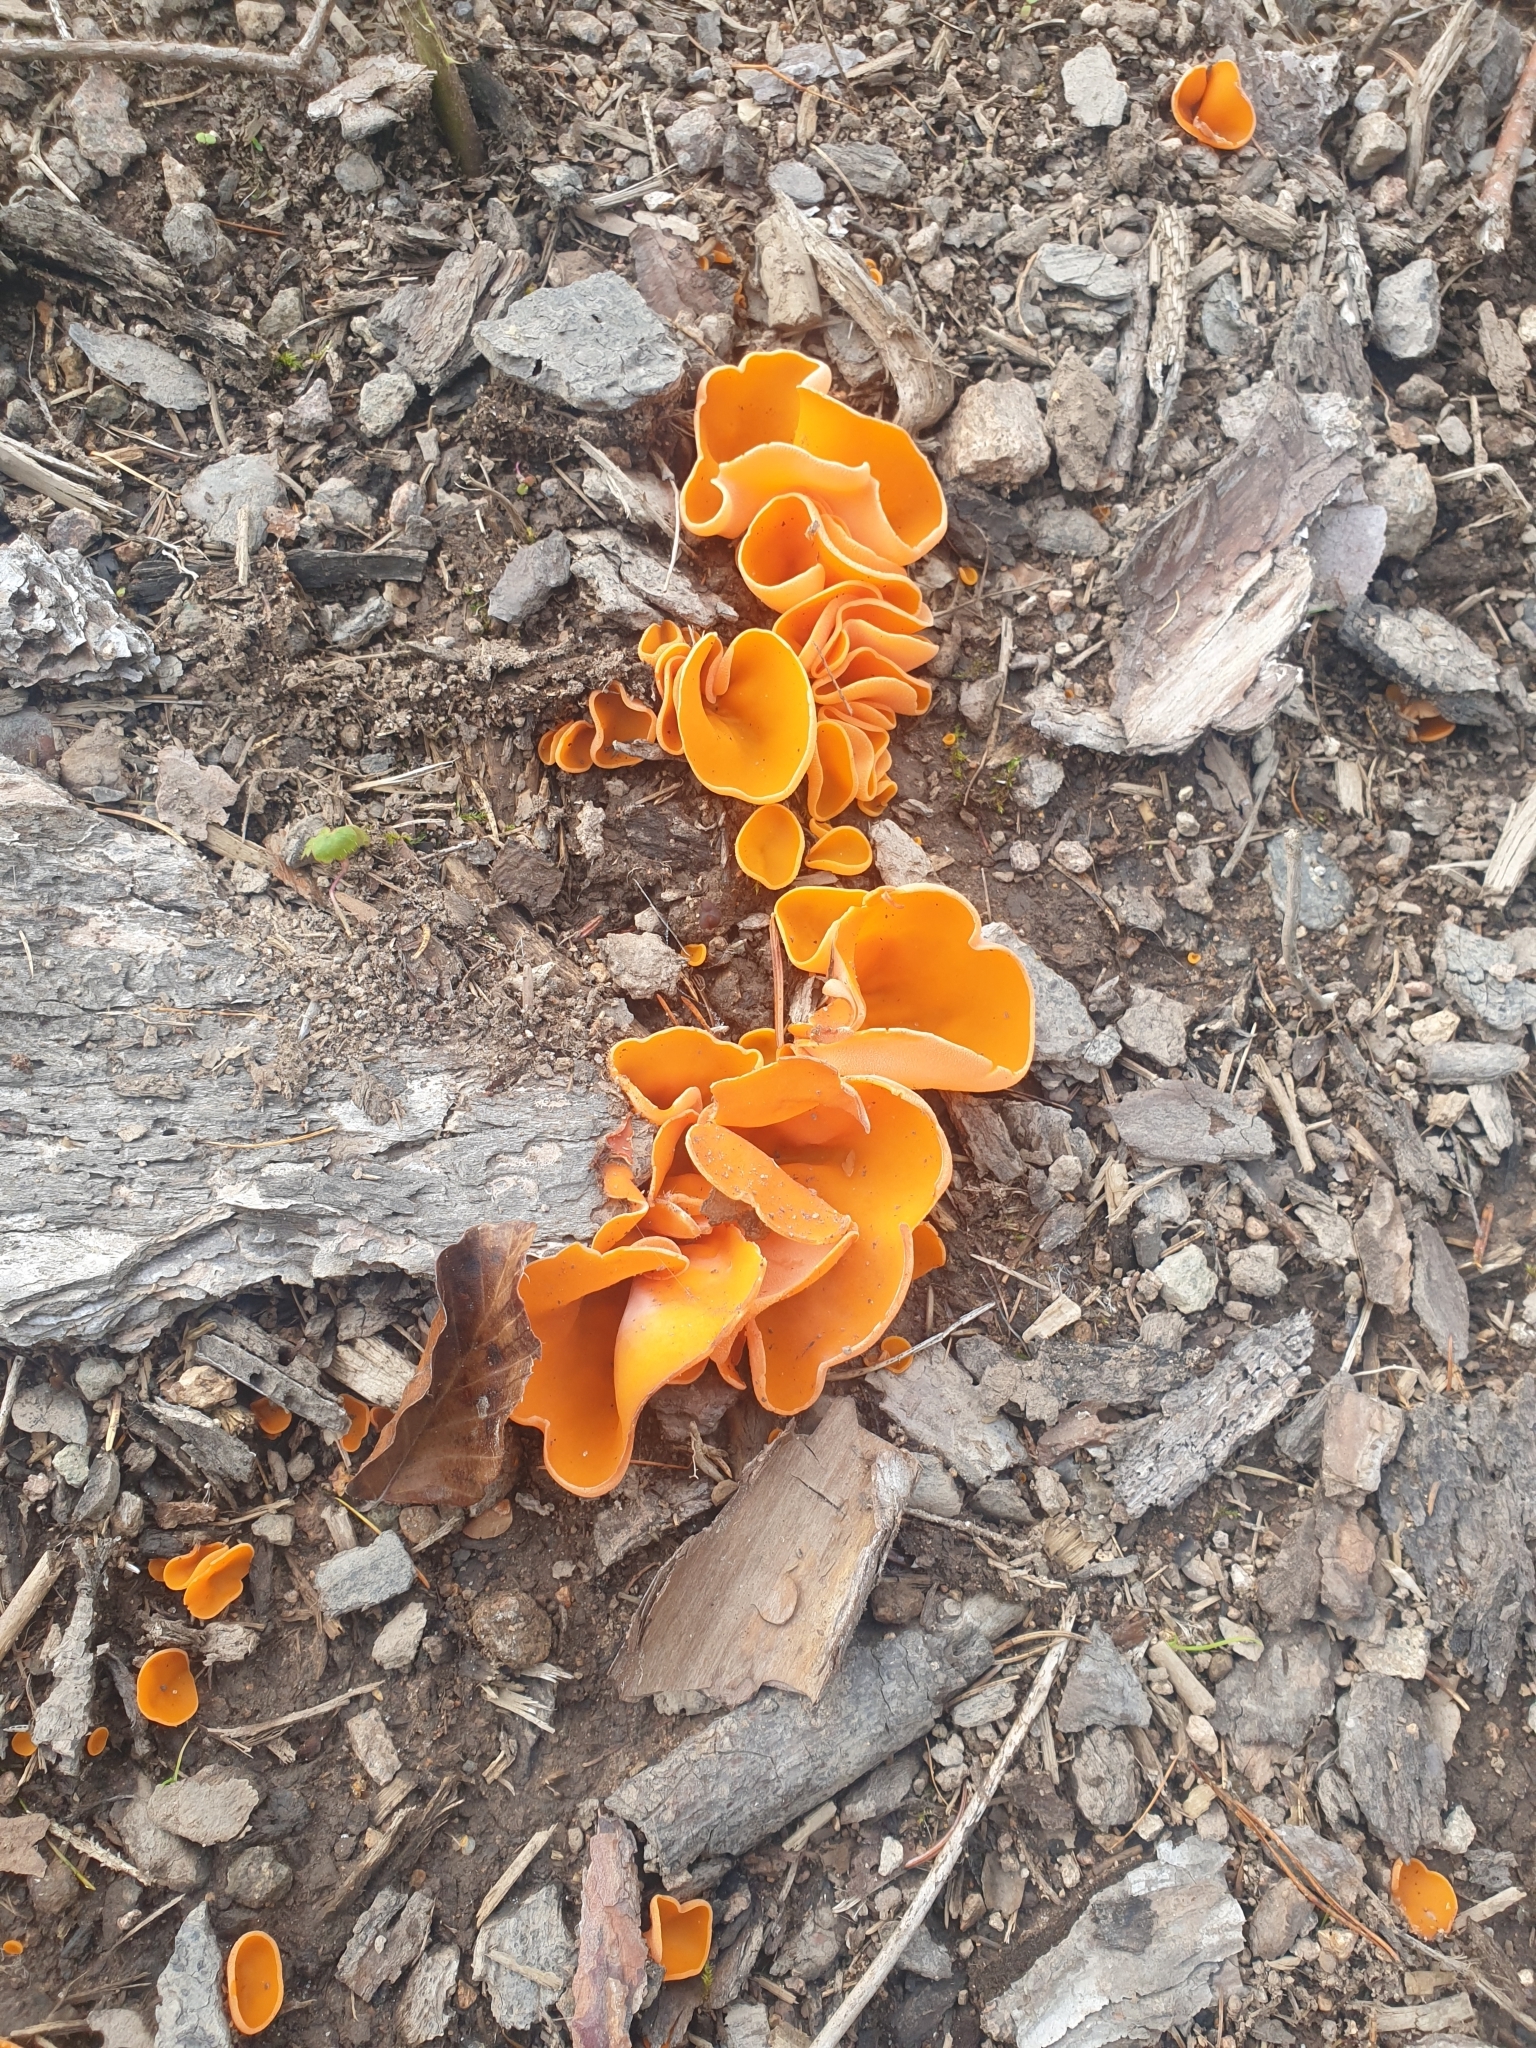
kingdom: Fungi
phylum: Ascomycota
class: Pezizomycetes
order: Pezizales
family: Pyronemataceae
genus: Aleuria
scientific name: Aleuria aurantia
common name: Orange peel fungus
